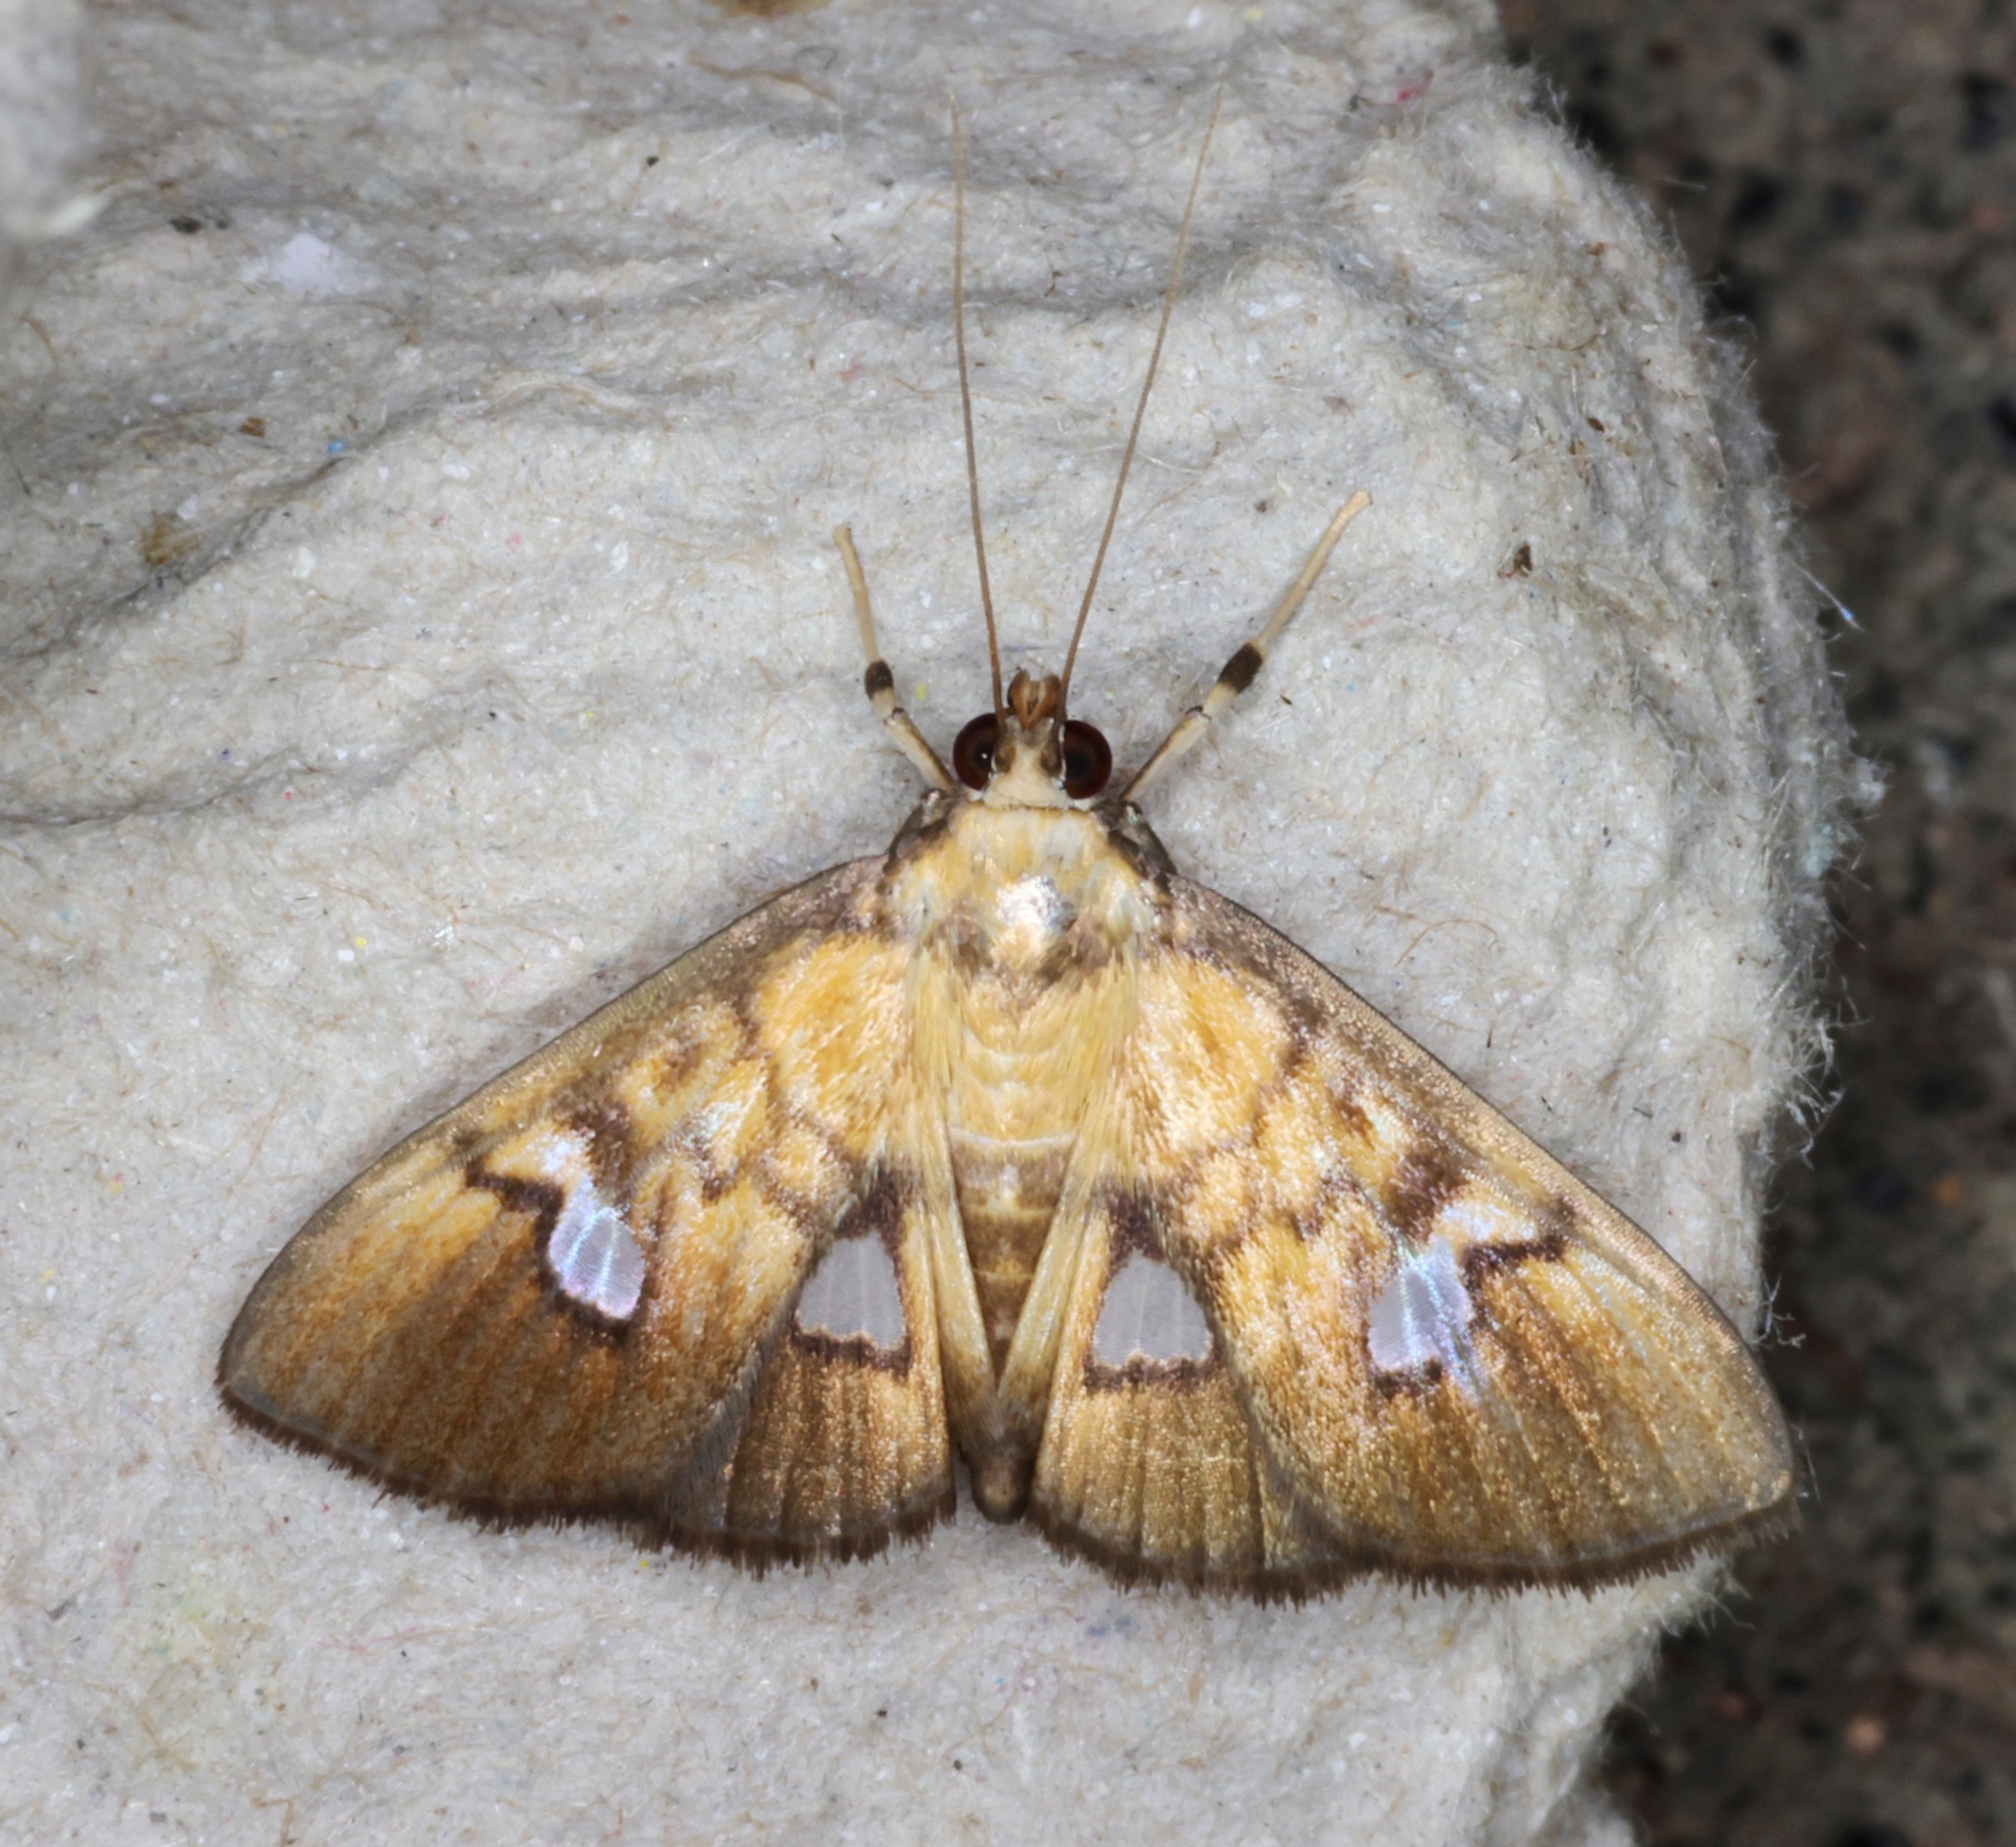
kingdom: Animalia
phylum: Arthropoda
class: Insecta
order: Lepidoptera
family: Crambidae
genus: Nosophora
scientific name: Nosophora semitritalis
